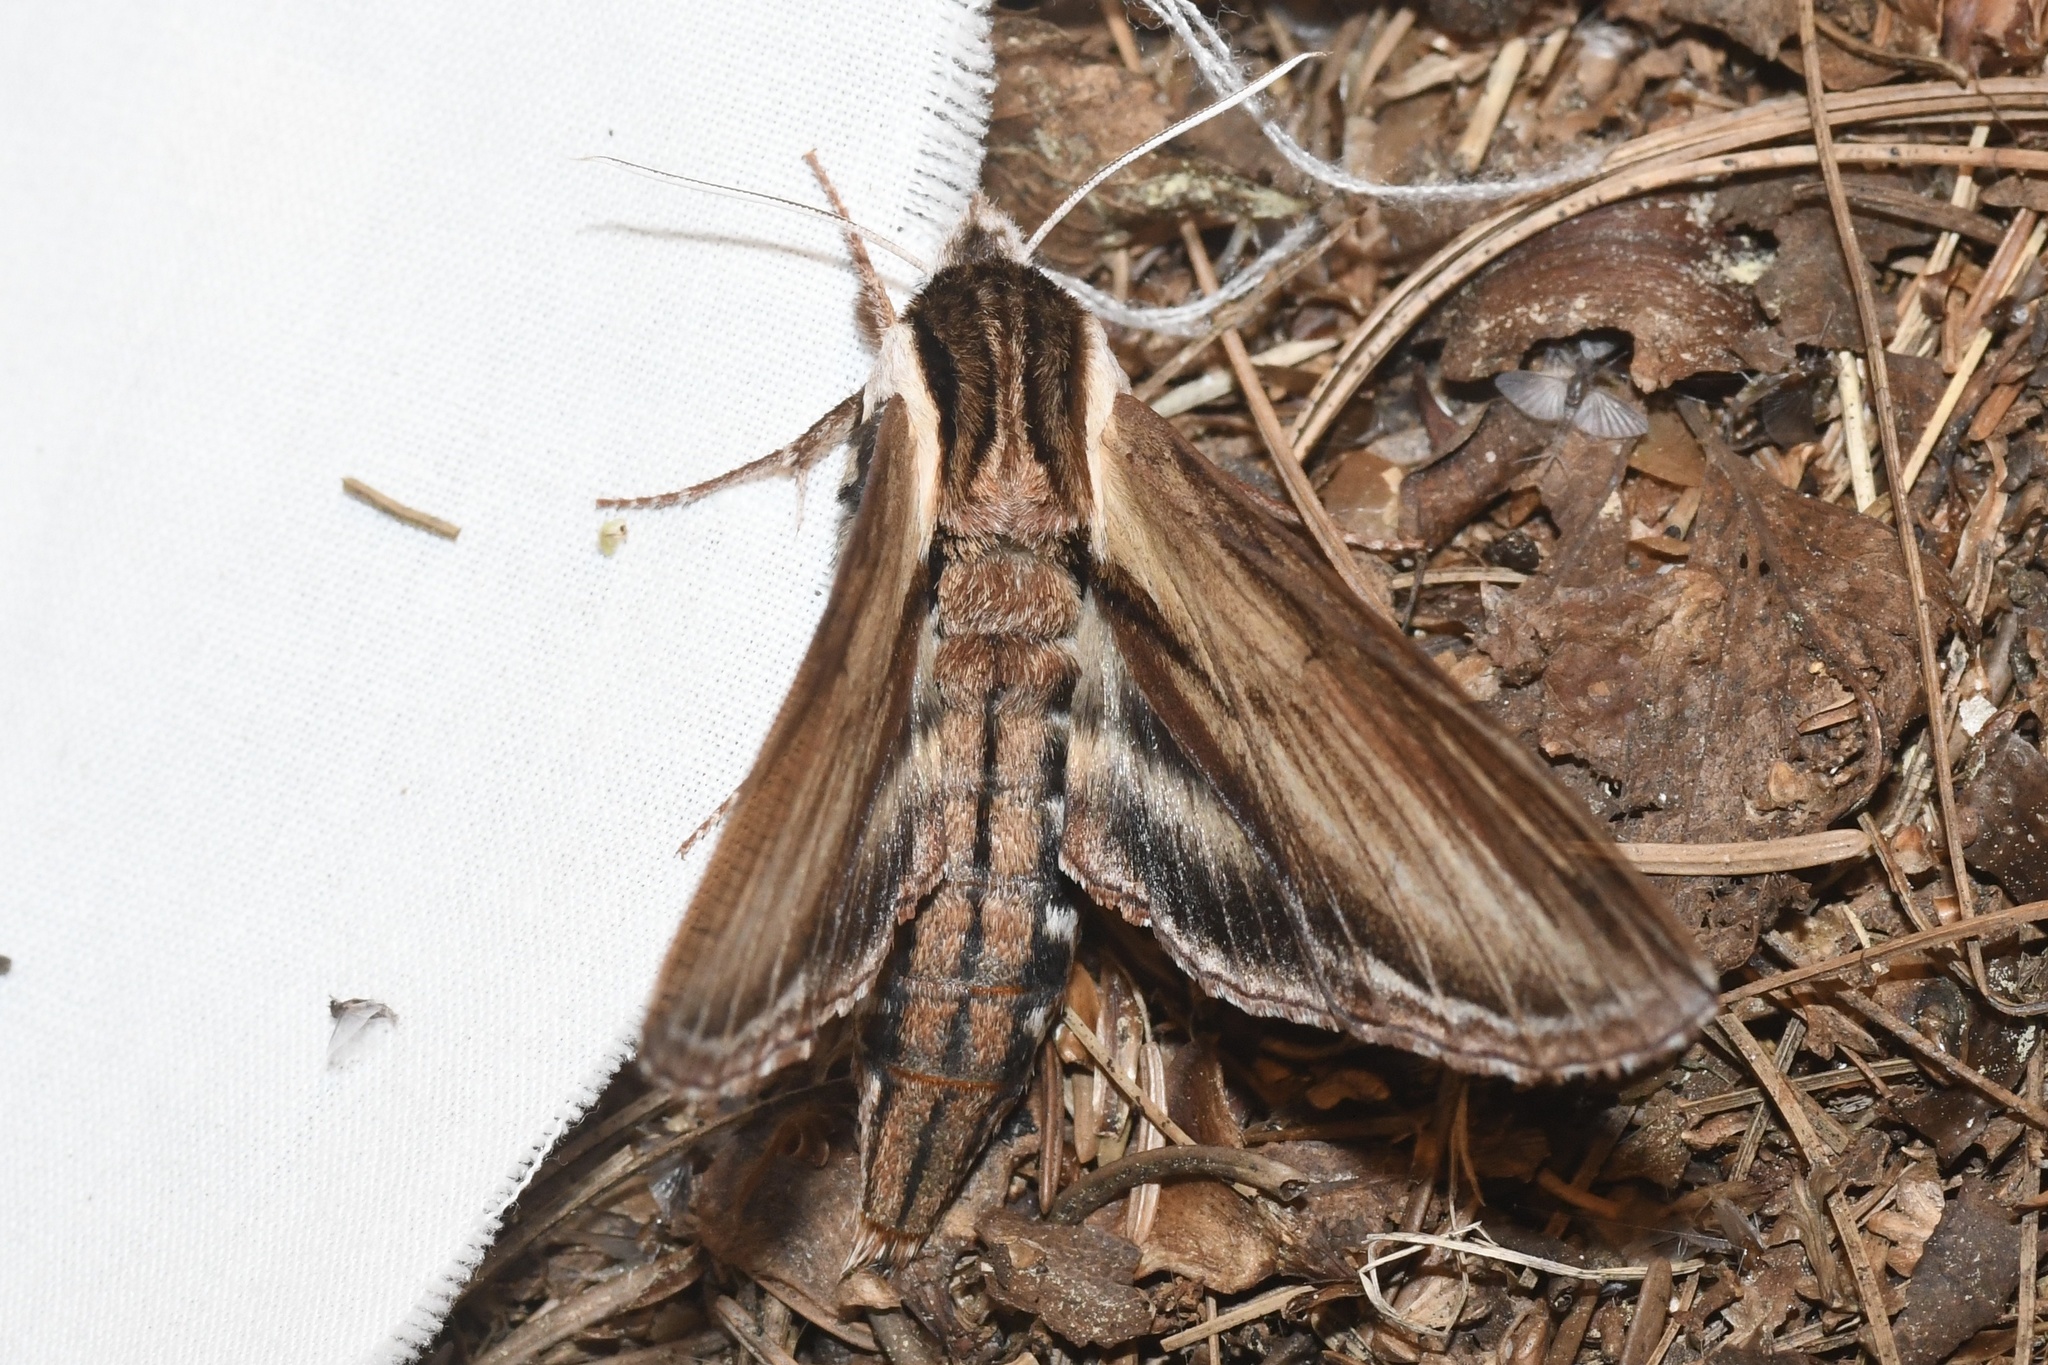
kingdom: Animalia
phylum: Arthropoda
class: Insecta
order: Lepidoptera
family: Sphingidae
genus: Sphinx
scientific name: Sphinx kalmiae
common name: Laurel sphinx
